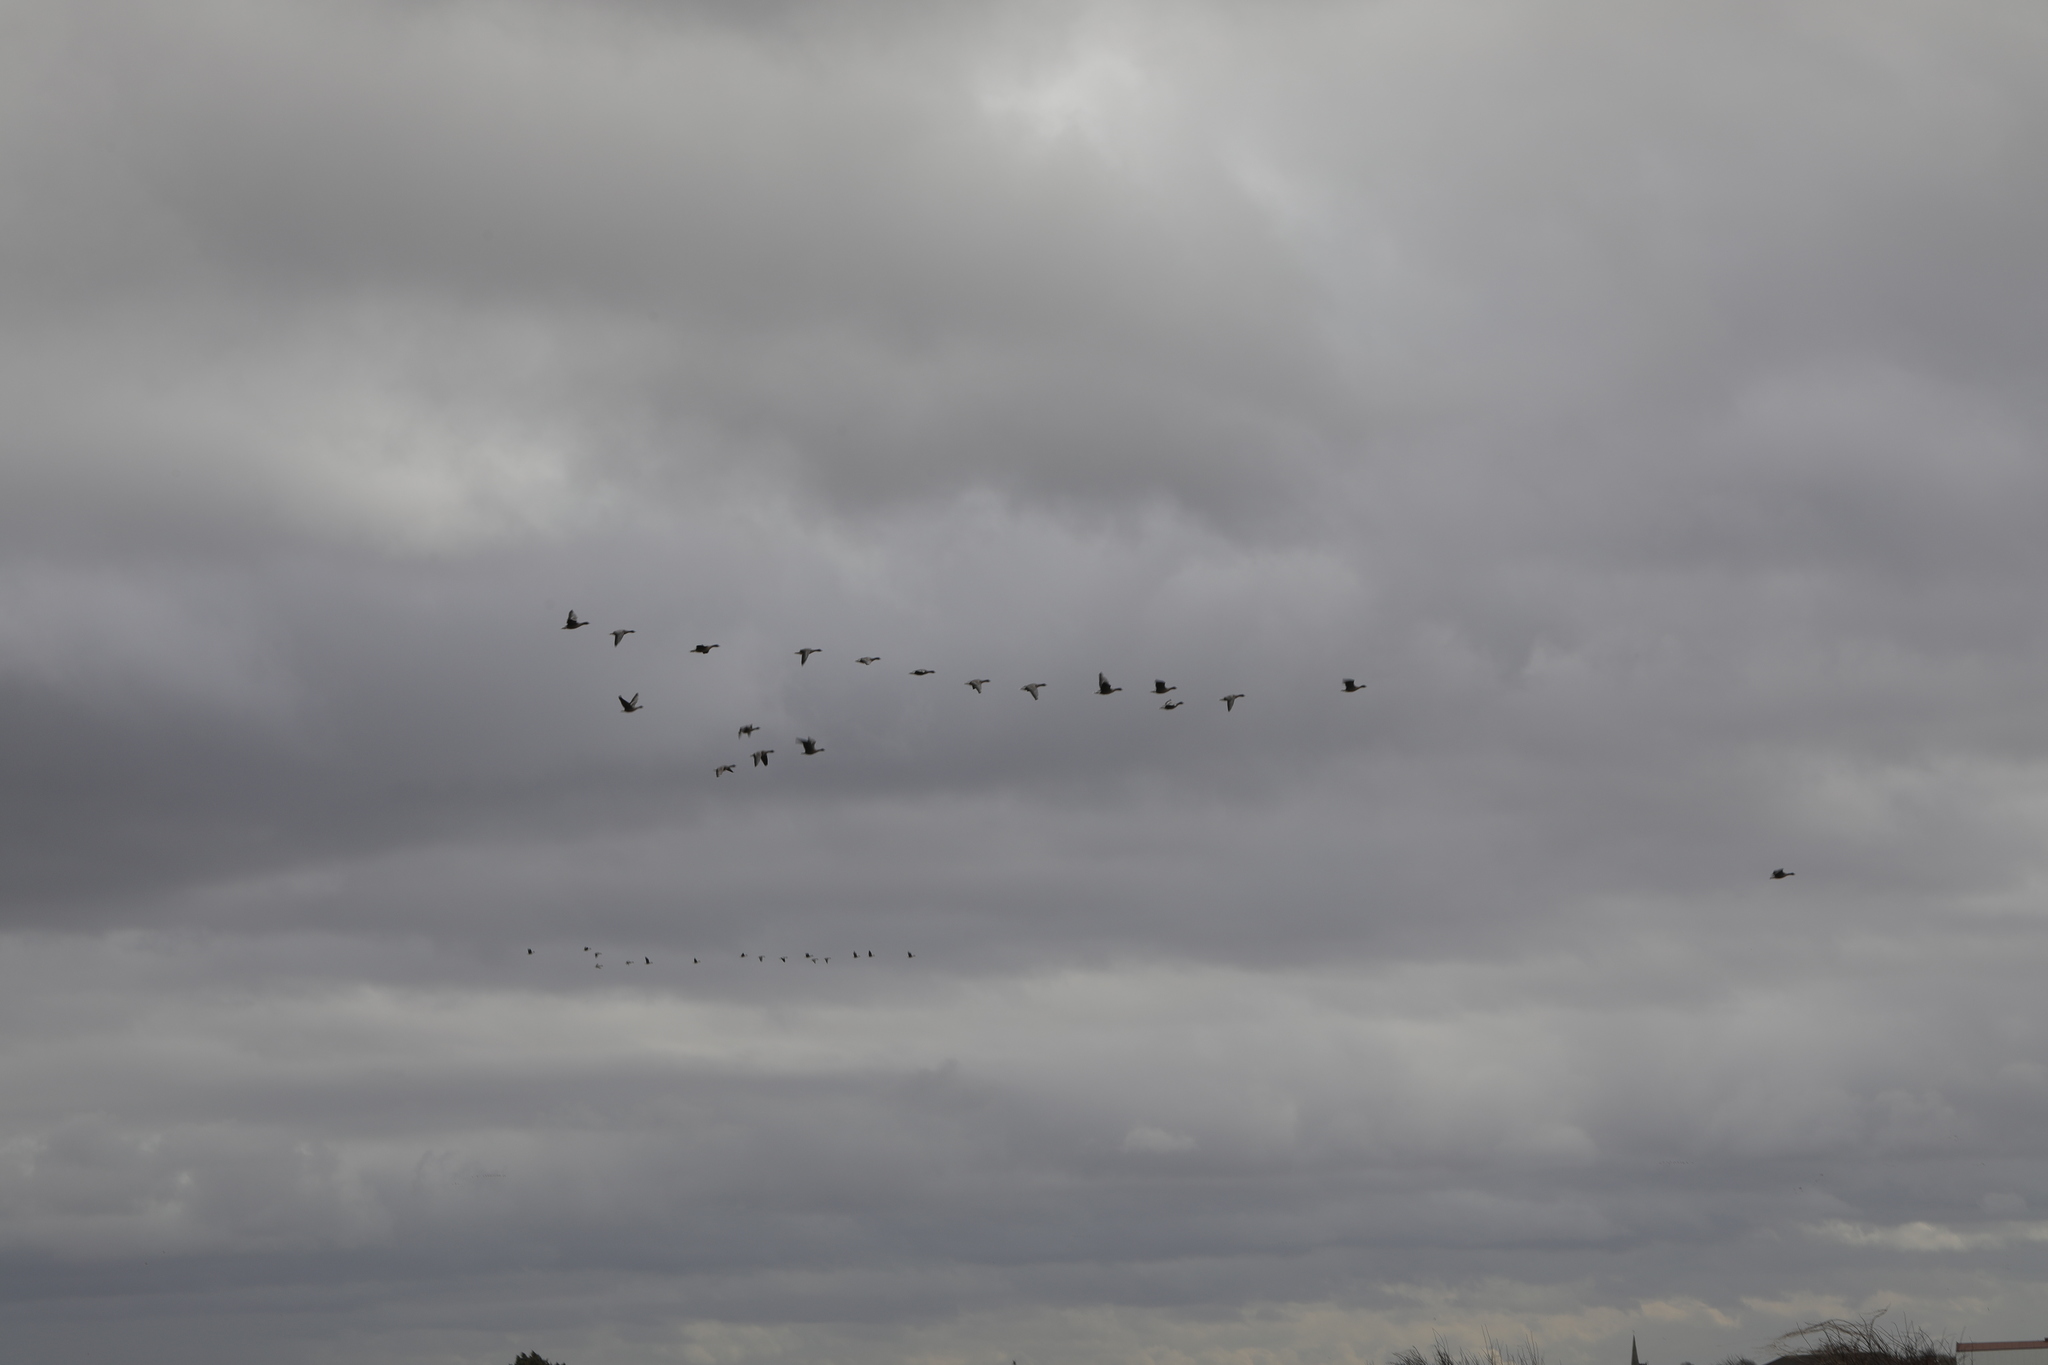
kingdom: Animalia
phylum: Chordata
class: Aves
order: Anseriformes
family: Anatidae
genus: Anser
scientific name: Anser brachyrhynchus
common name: Pink-footed goose
